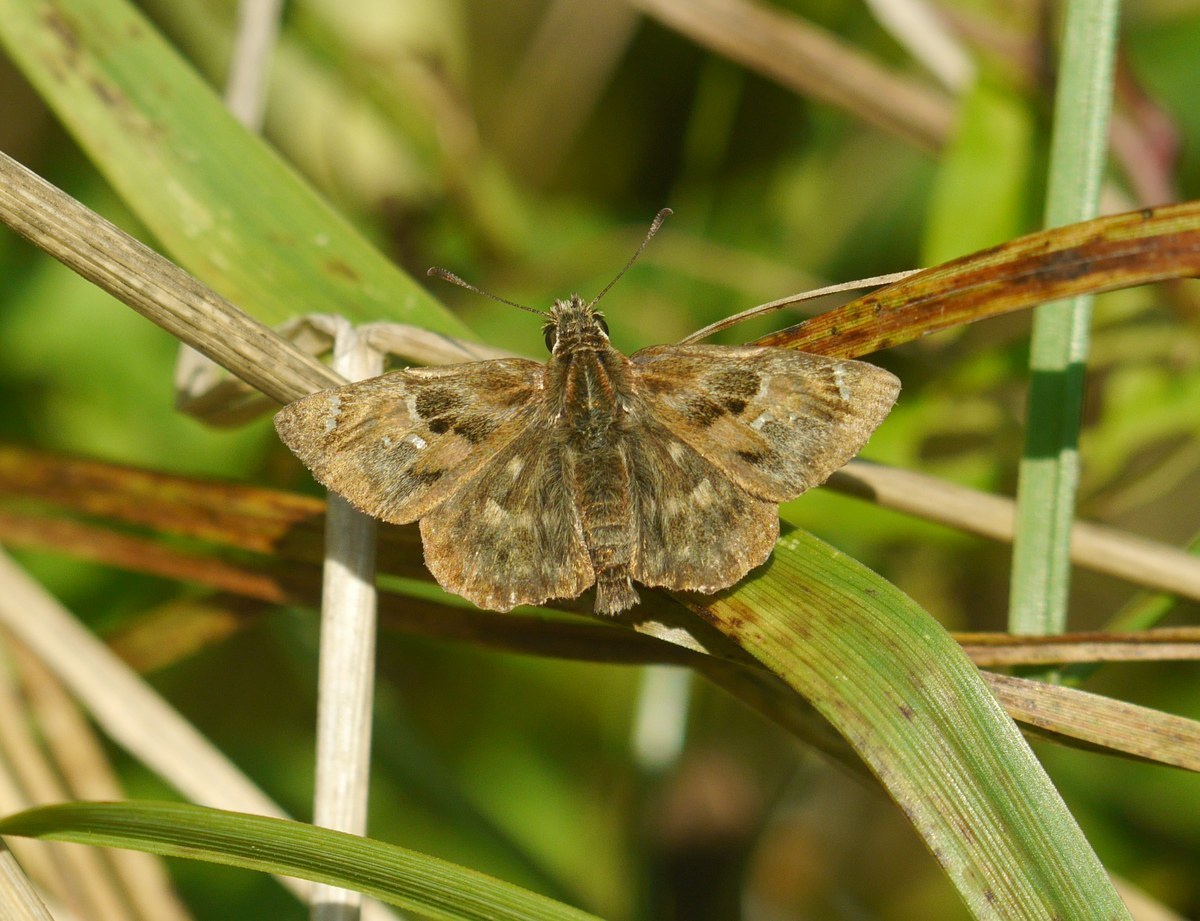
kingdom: Animalia
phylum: Arthropoda
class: Insecta
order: Lepidoptera
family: Hesperiidae
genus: Carcharodus
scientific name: Carcharodus alceae
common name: Mallow skipper
